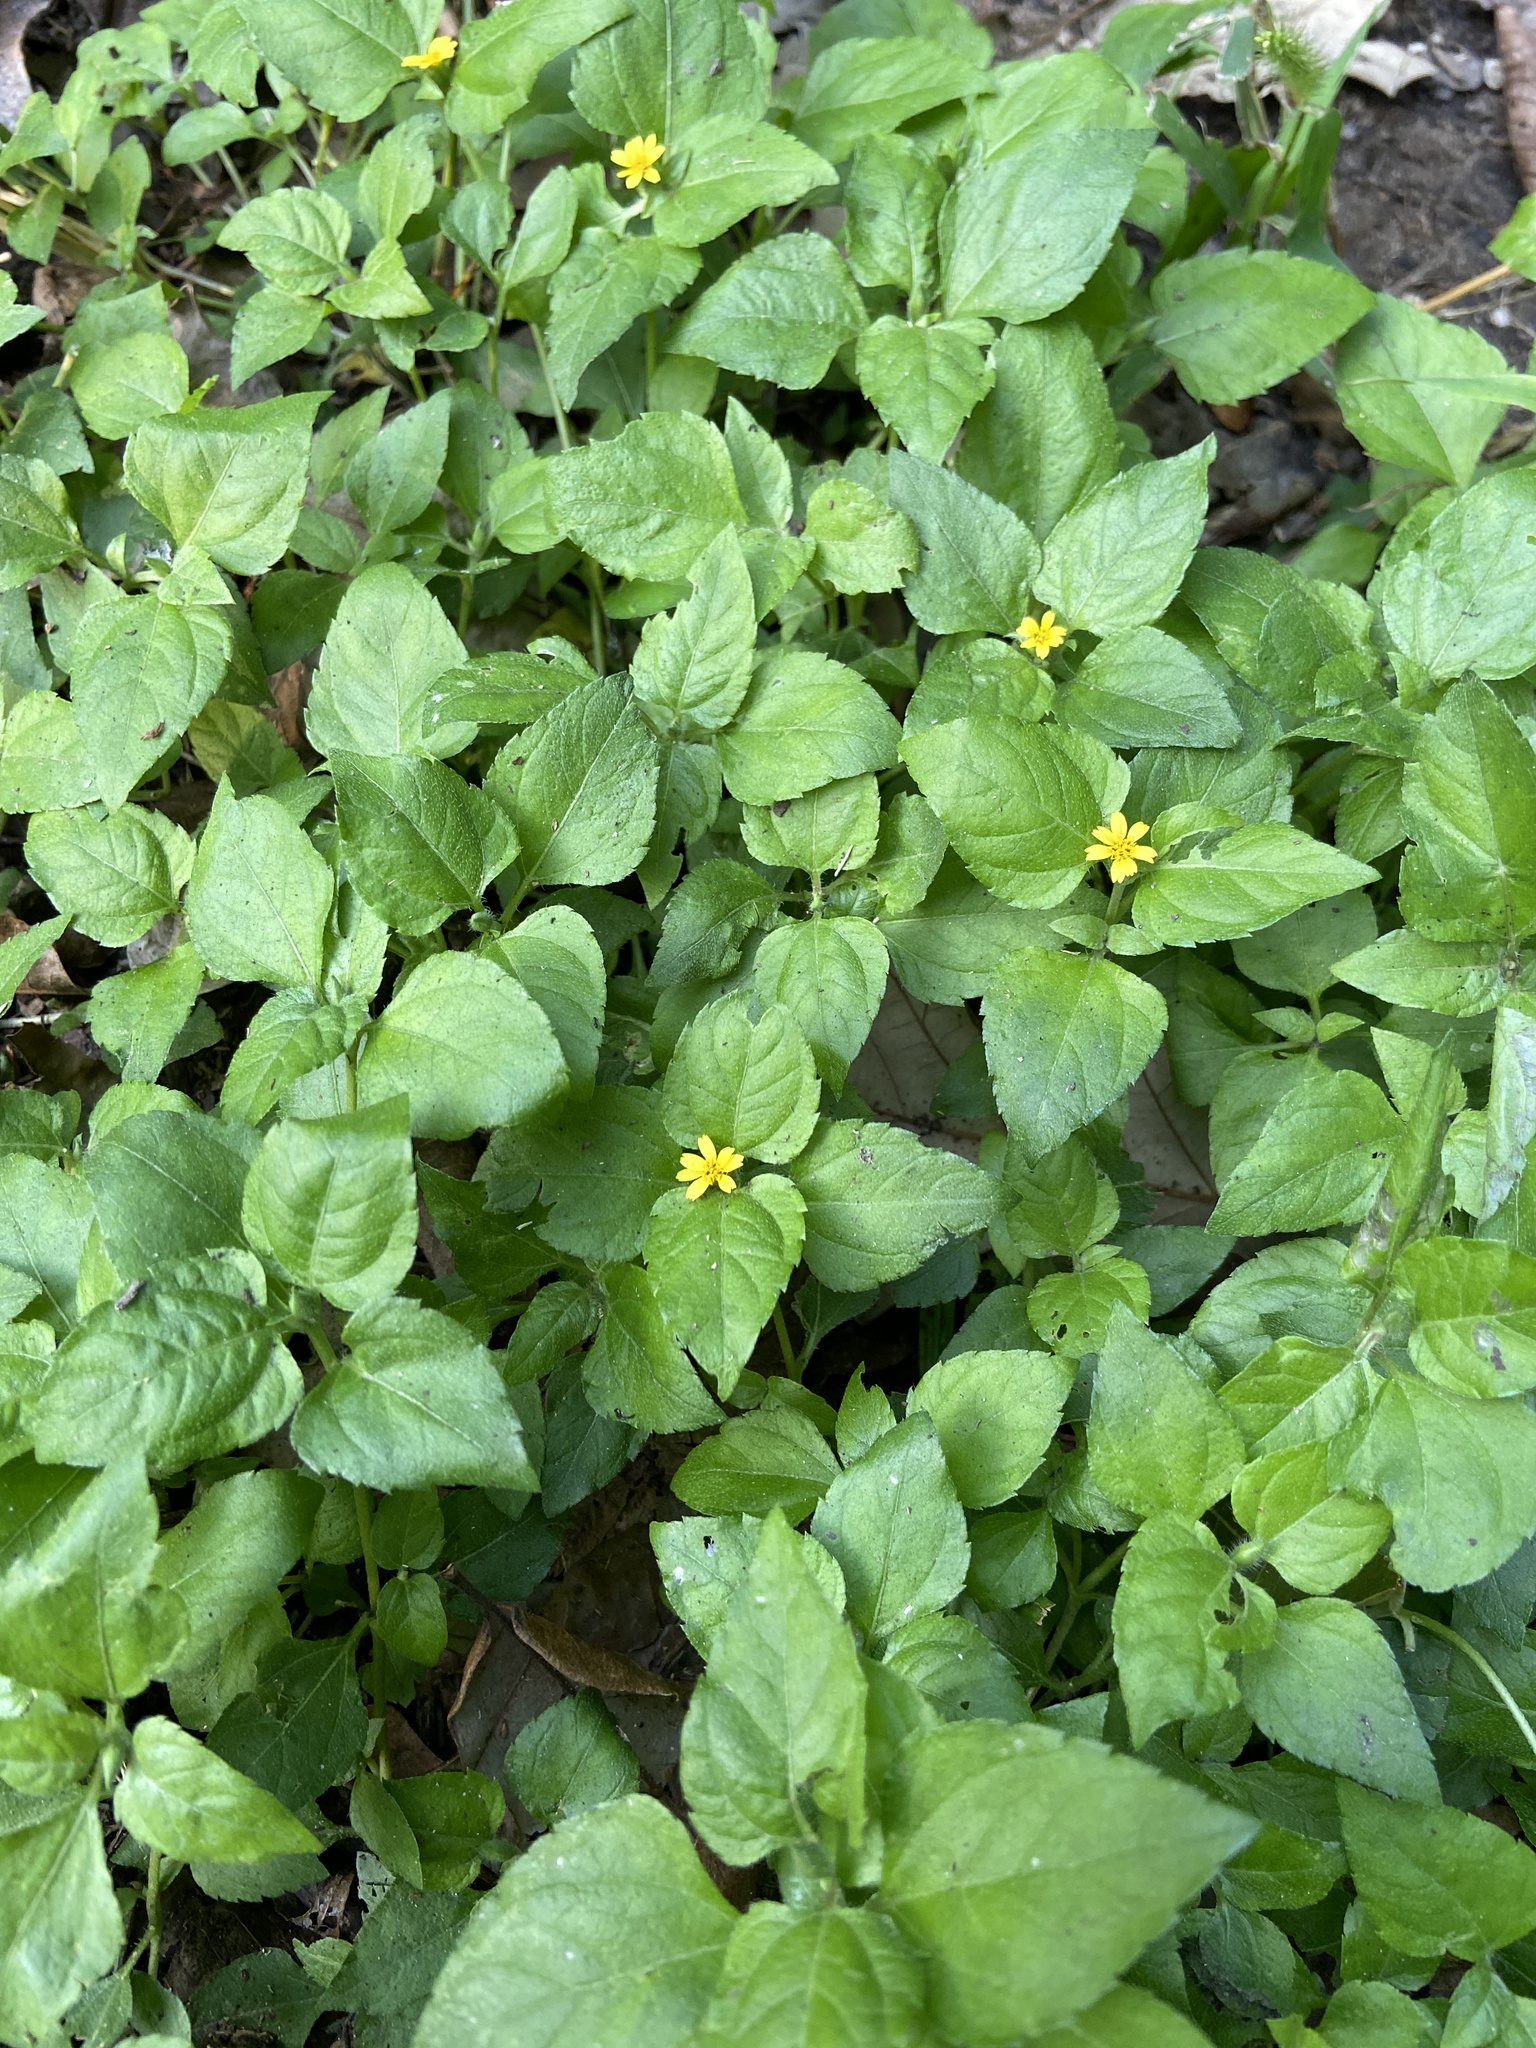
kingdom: Plantae
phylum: Tracheophyta
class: Magnoliopsida
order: Asterales
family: Asteraceae
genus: Calyptocarpus
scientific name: Calyptocarpus vialis
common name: Straggler daisy
